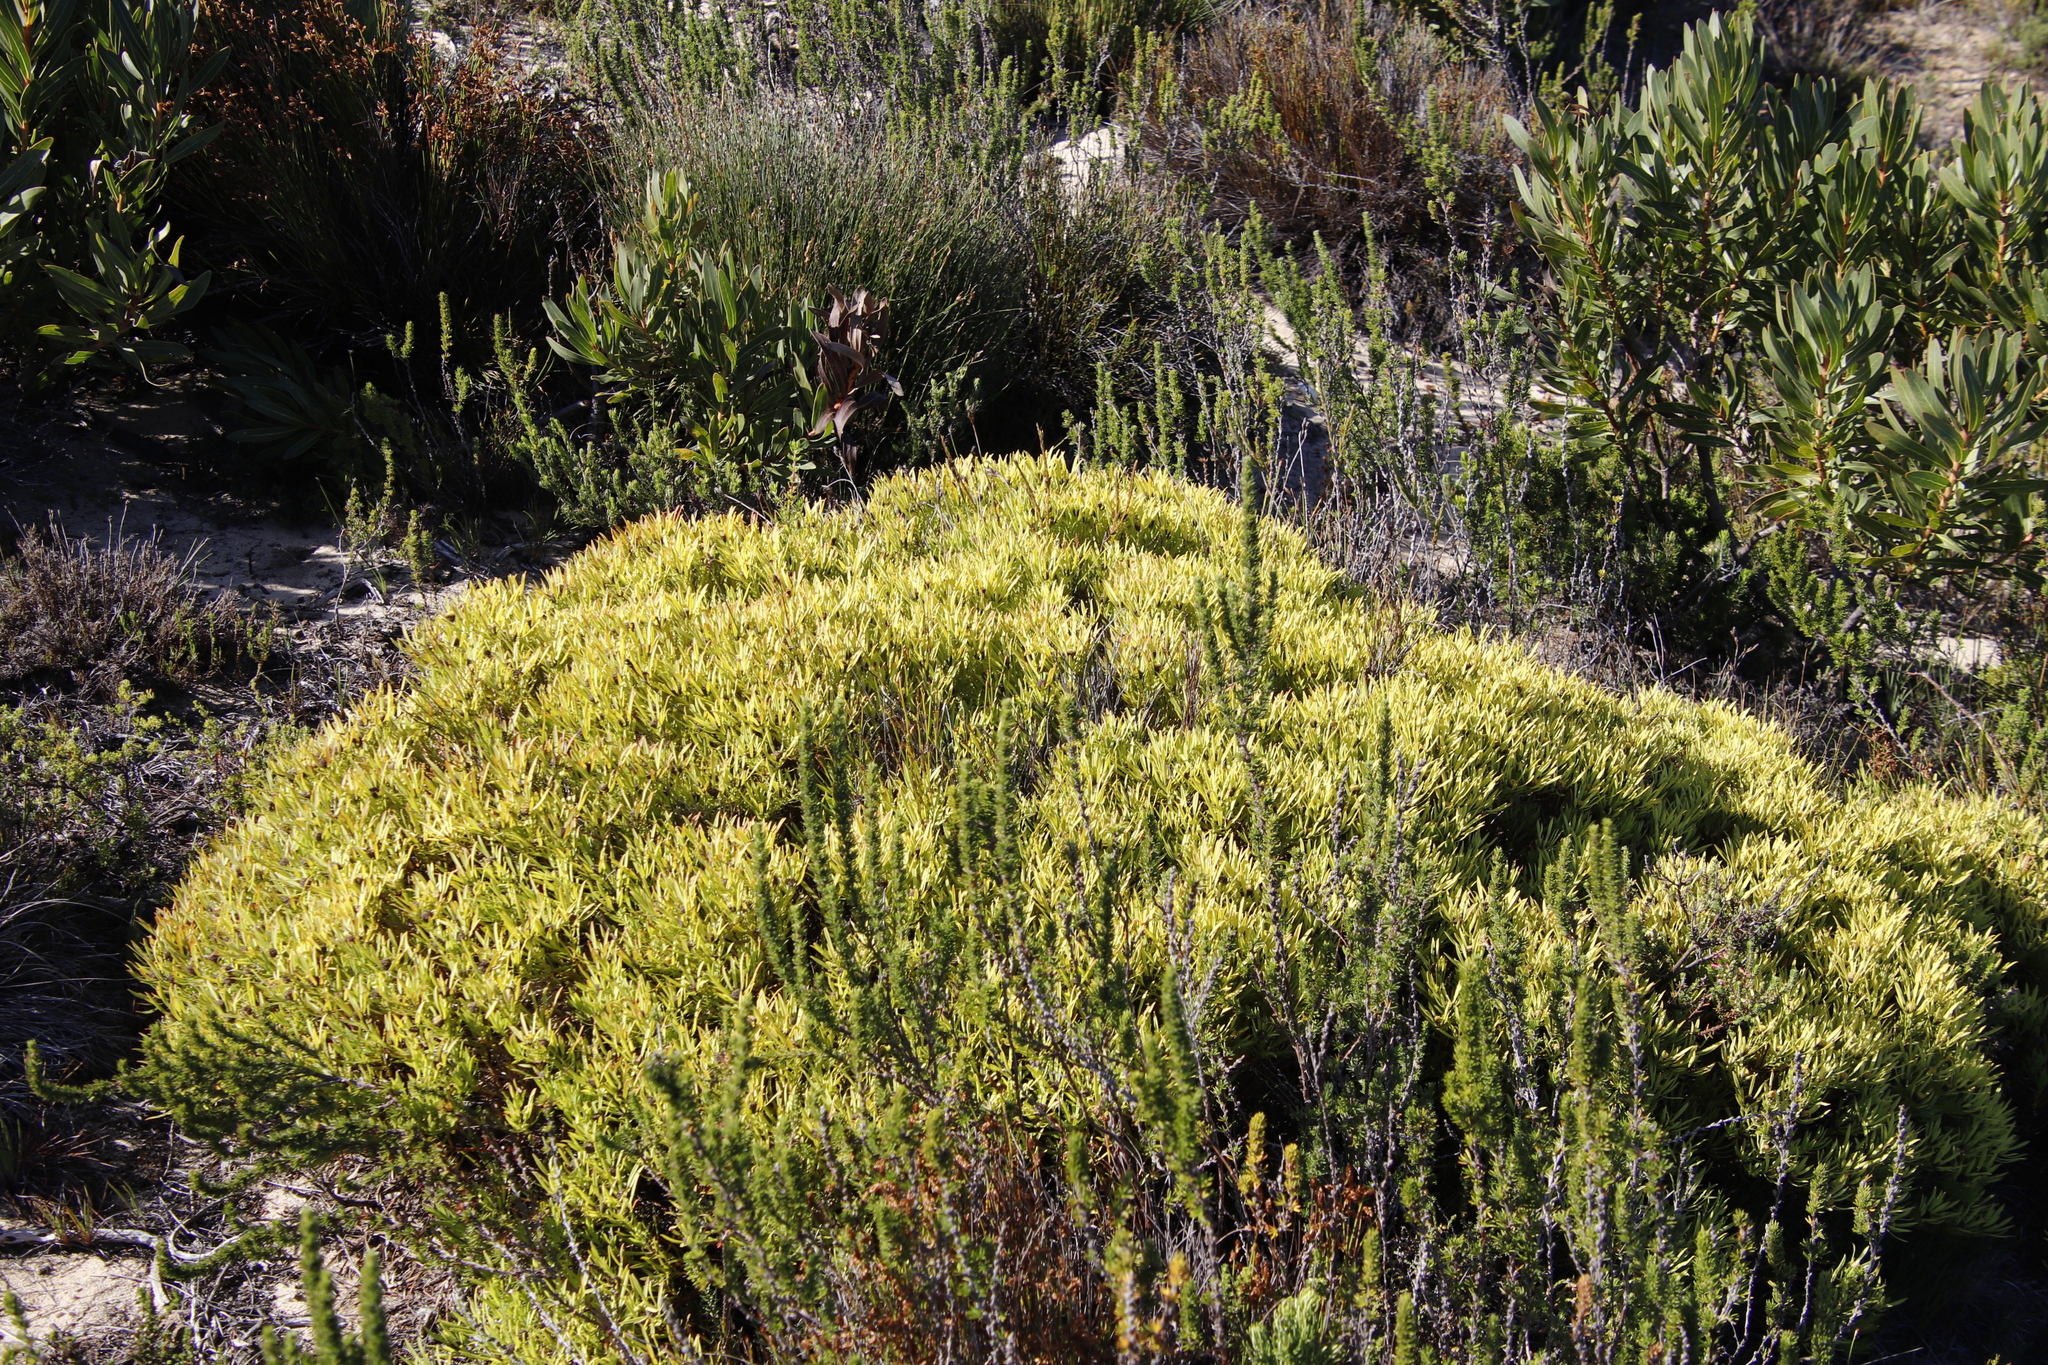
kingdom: Plantae
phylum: Tracheophyta
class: Magnoliopsida
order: Proteales
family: Proteaceae
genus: Leucadendron
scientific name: Leucadendron salignum
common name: Common sunshine conebush
